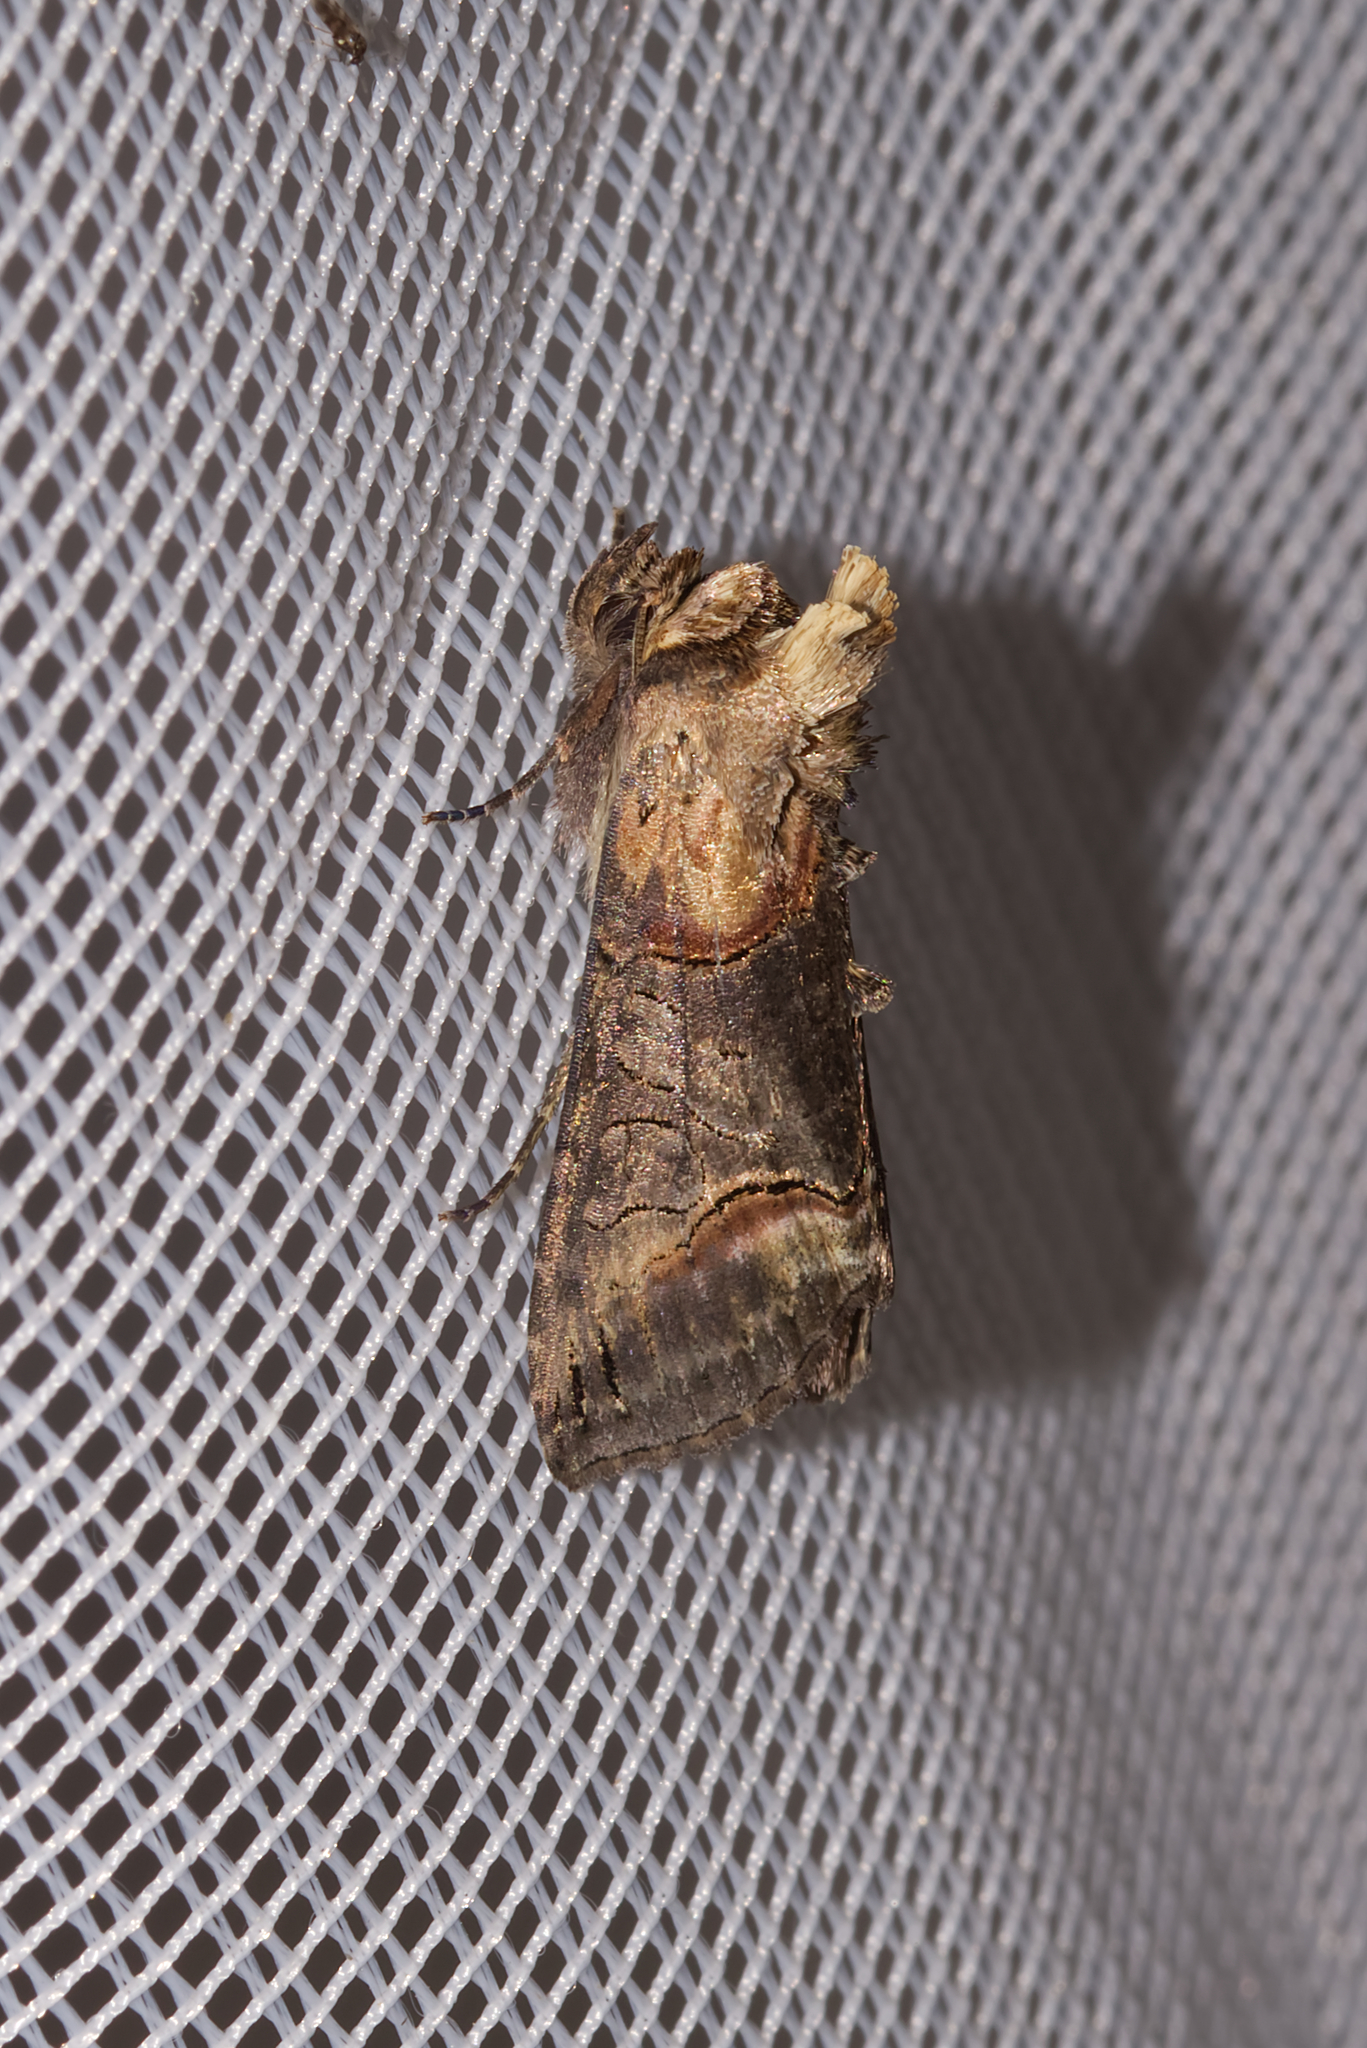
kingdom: Animalia
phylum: Arthropoda
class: Insecta
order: Lepidoptera
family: Noctuidae
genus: Abrostola
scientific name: Abrostola triplasia
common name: Dark spectacle
